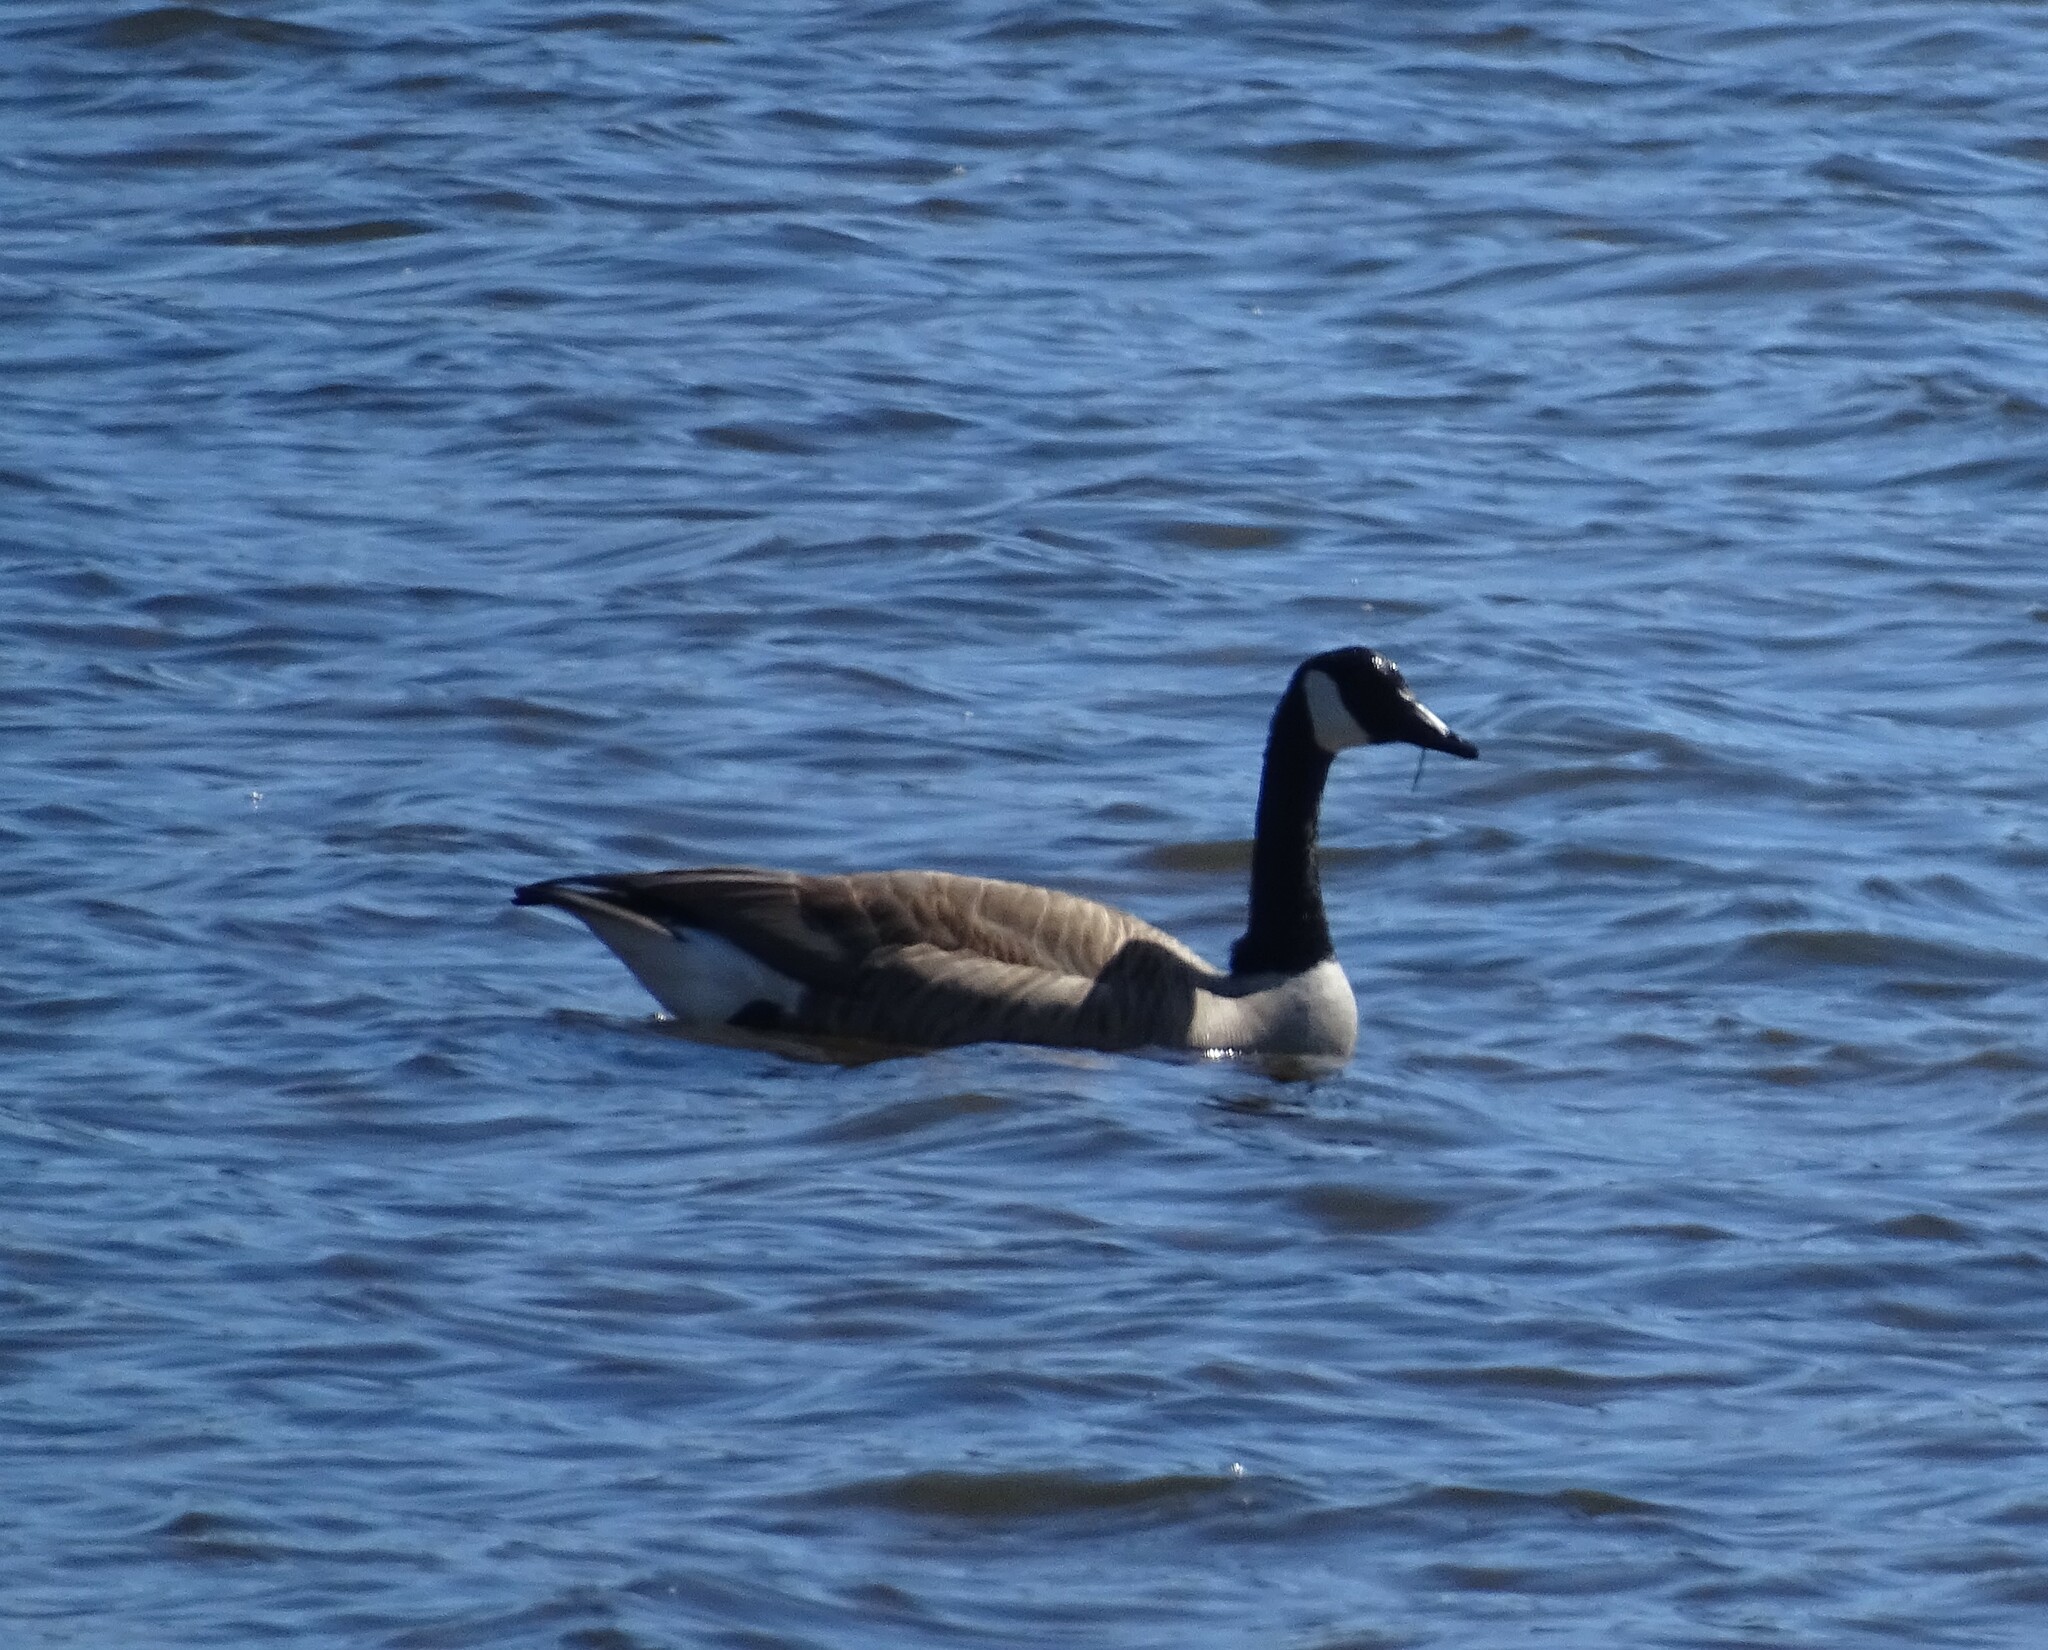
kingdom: Animalia
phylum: Chordata
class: Aves
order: Anseriformes
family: Anatidae
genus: Branta
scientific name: Branta canadensis
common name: Canada goose
